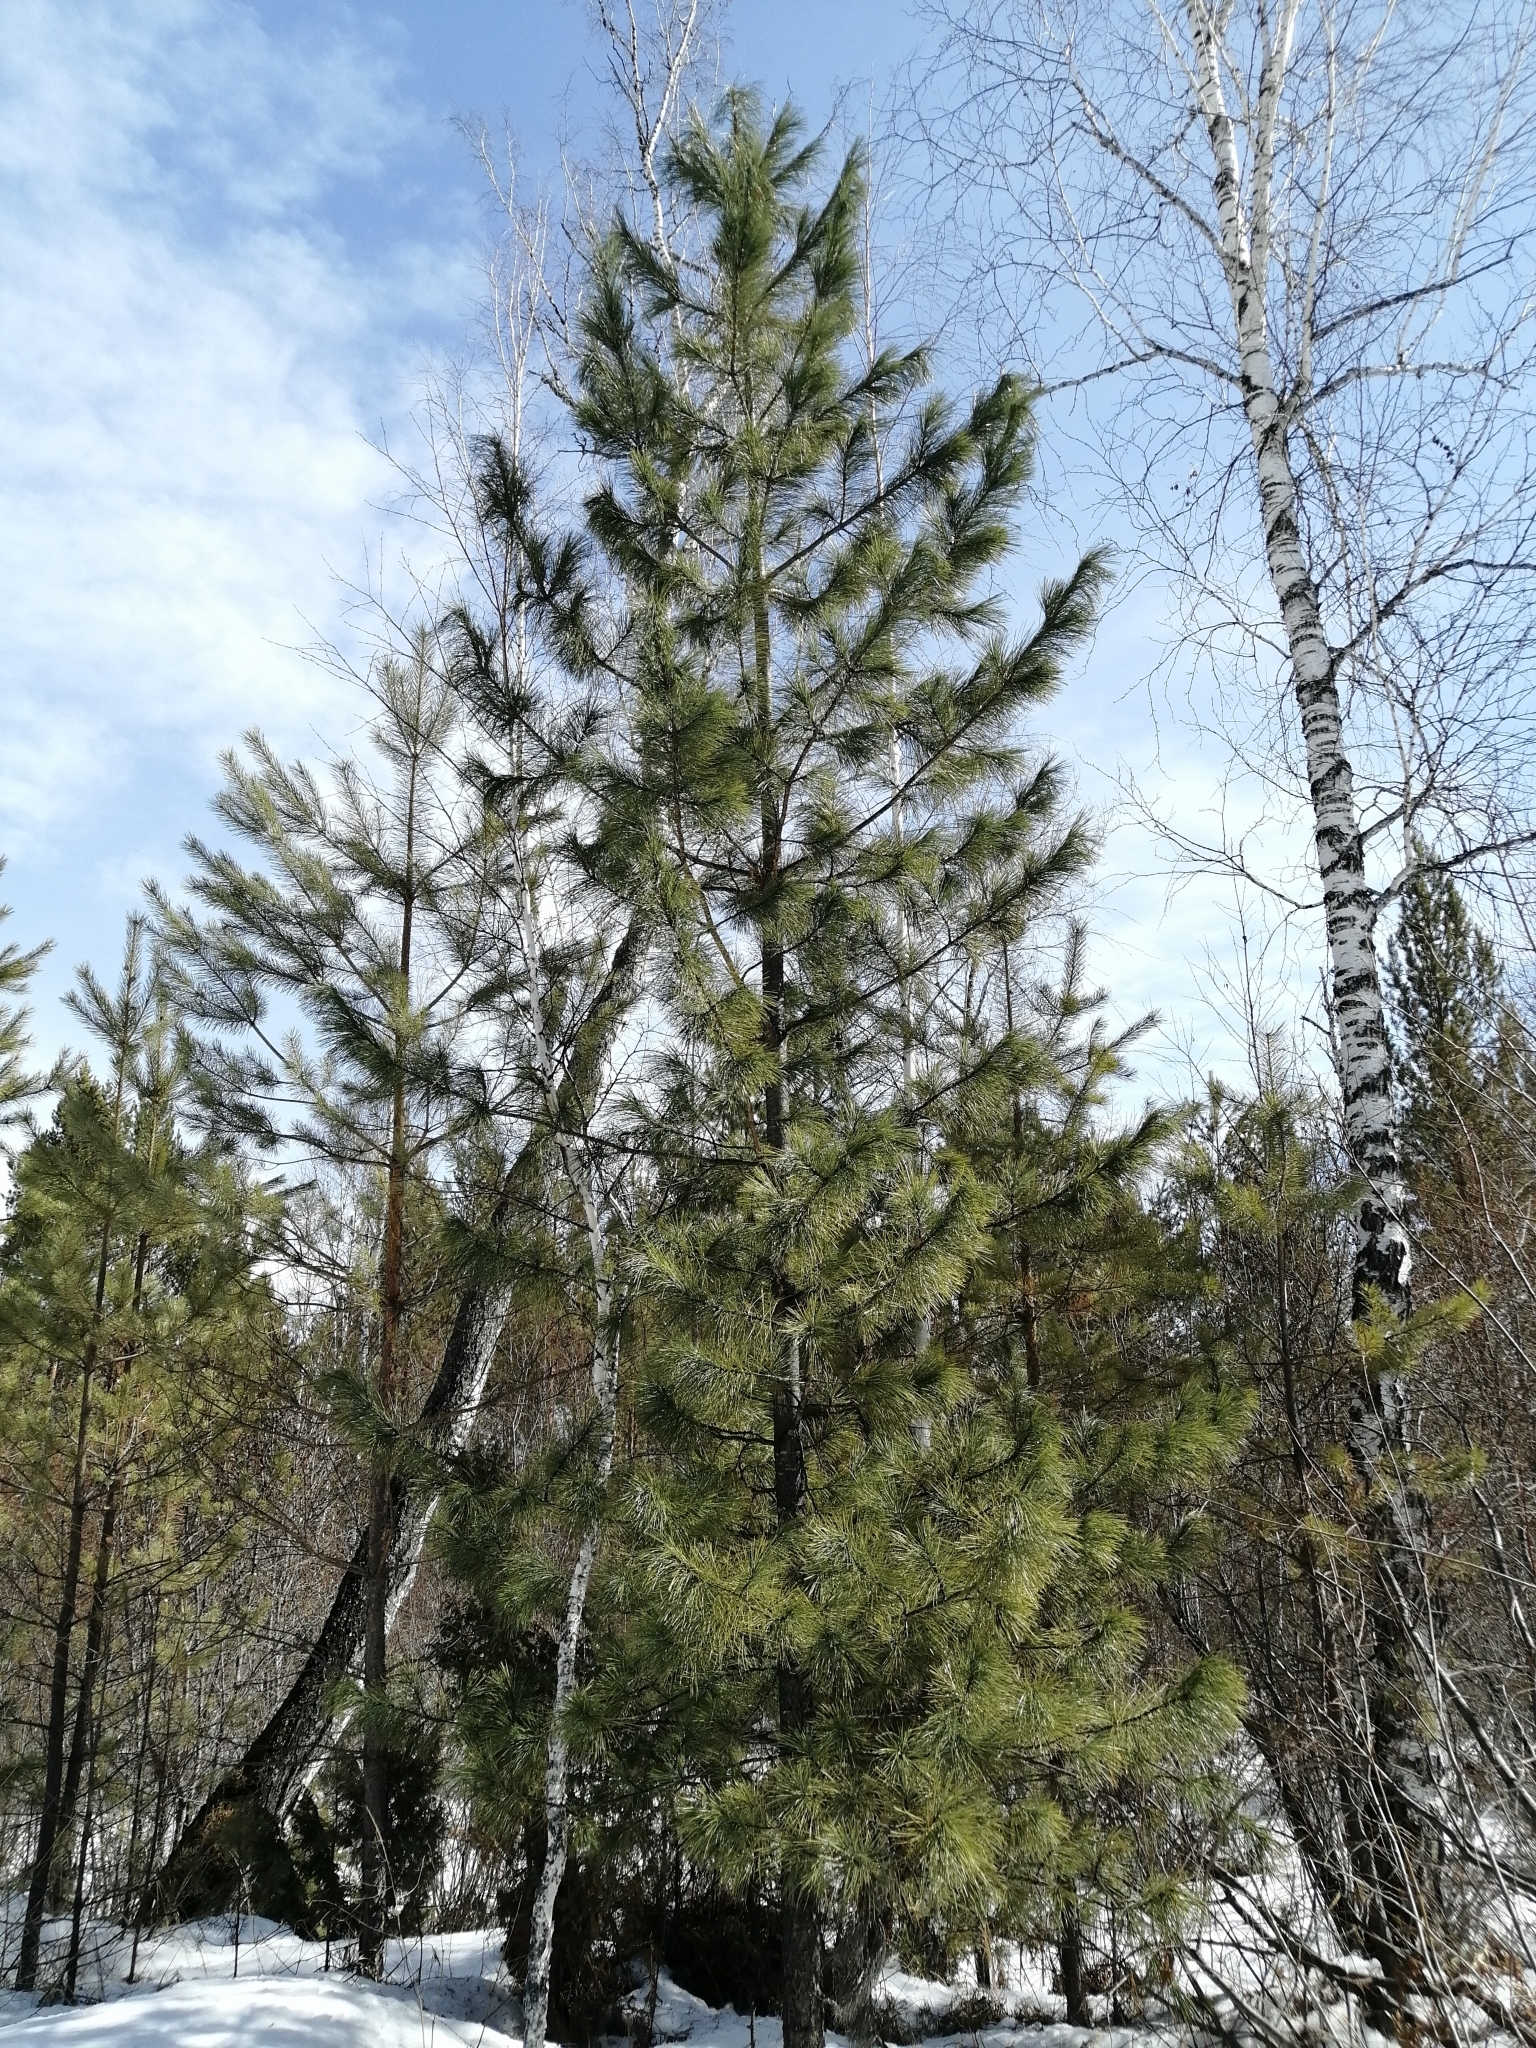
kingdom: Plantae
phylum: Tracheophyta
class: Pinopsida
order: Pinales
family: Pinaceae
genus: Pinus
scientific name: Pinus sibirica
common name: Siberian pine
